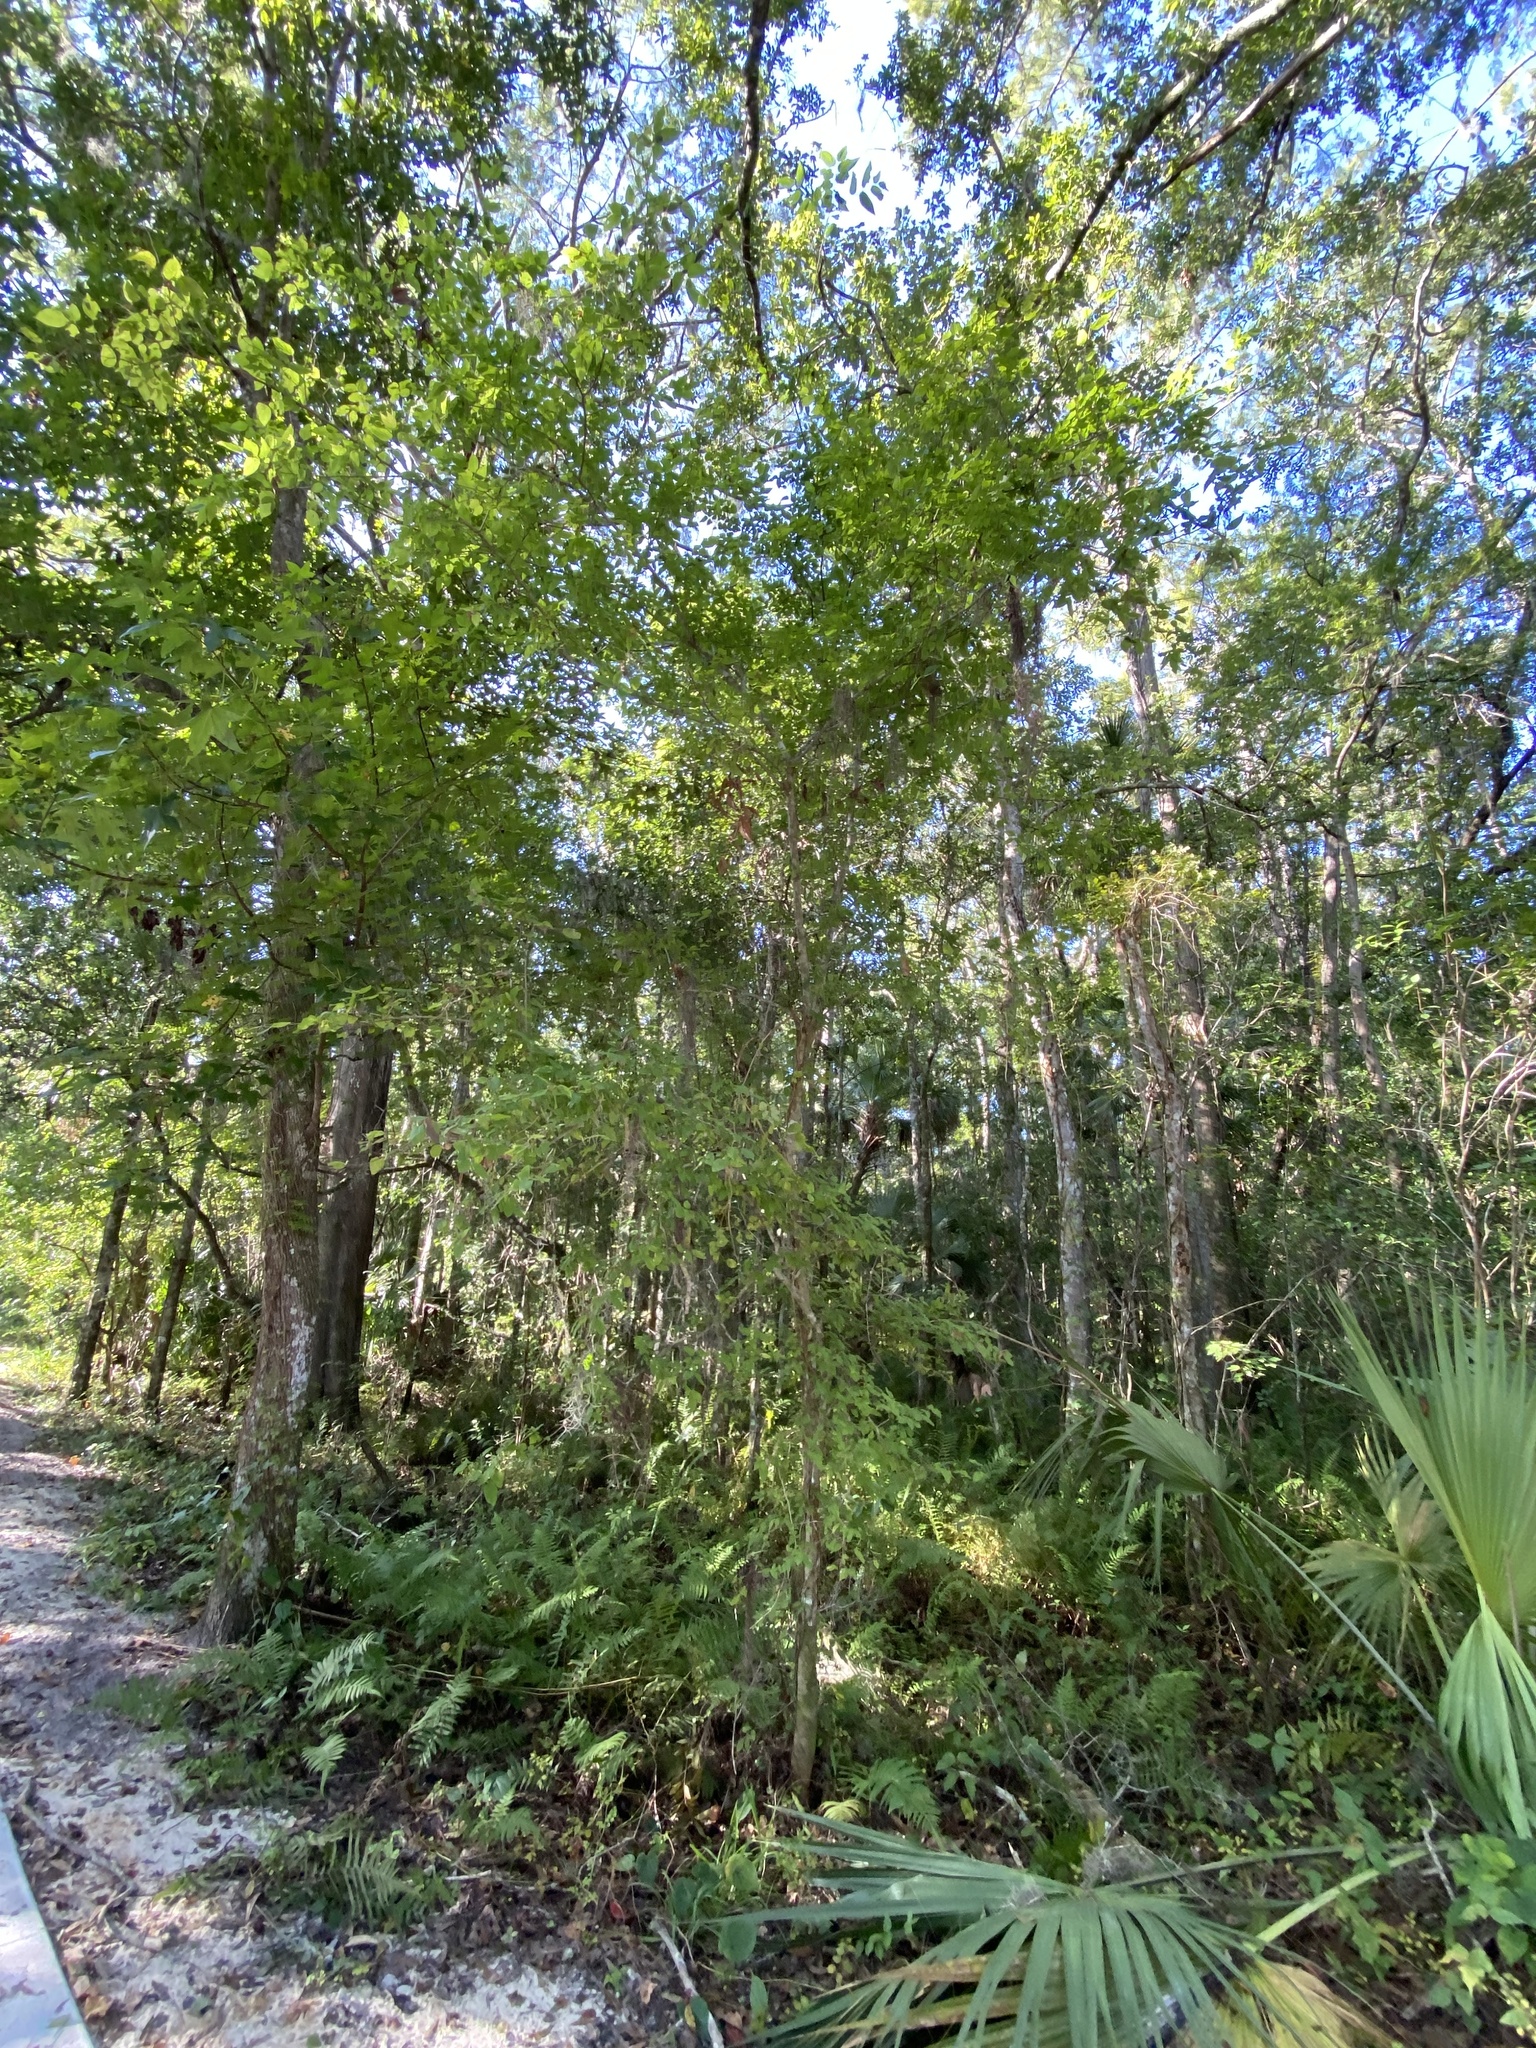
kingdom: Plantae
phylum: Tracheophyta
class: Magnoliopsida
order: Rosales
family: Cannabaceae
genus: Celtis
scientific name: Celtis laevigata
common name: Sugarberry
